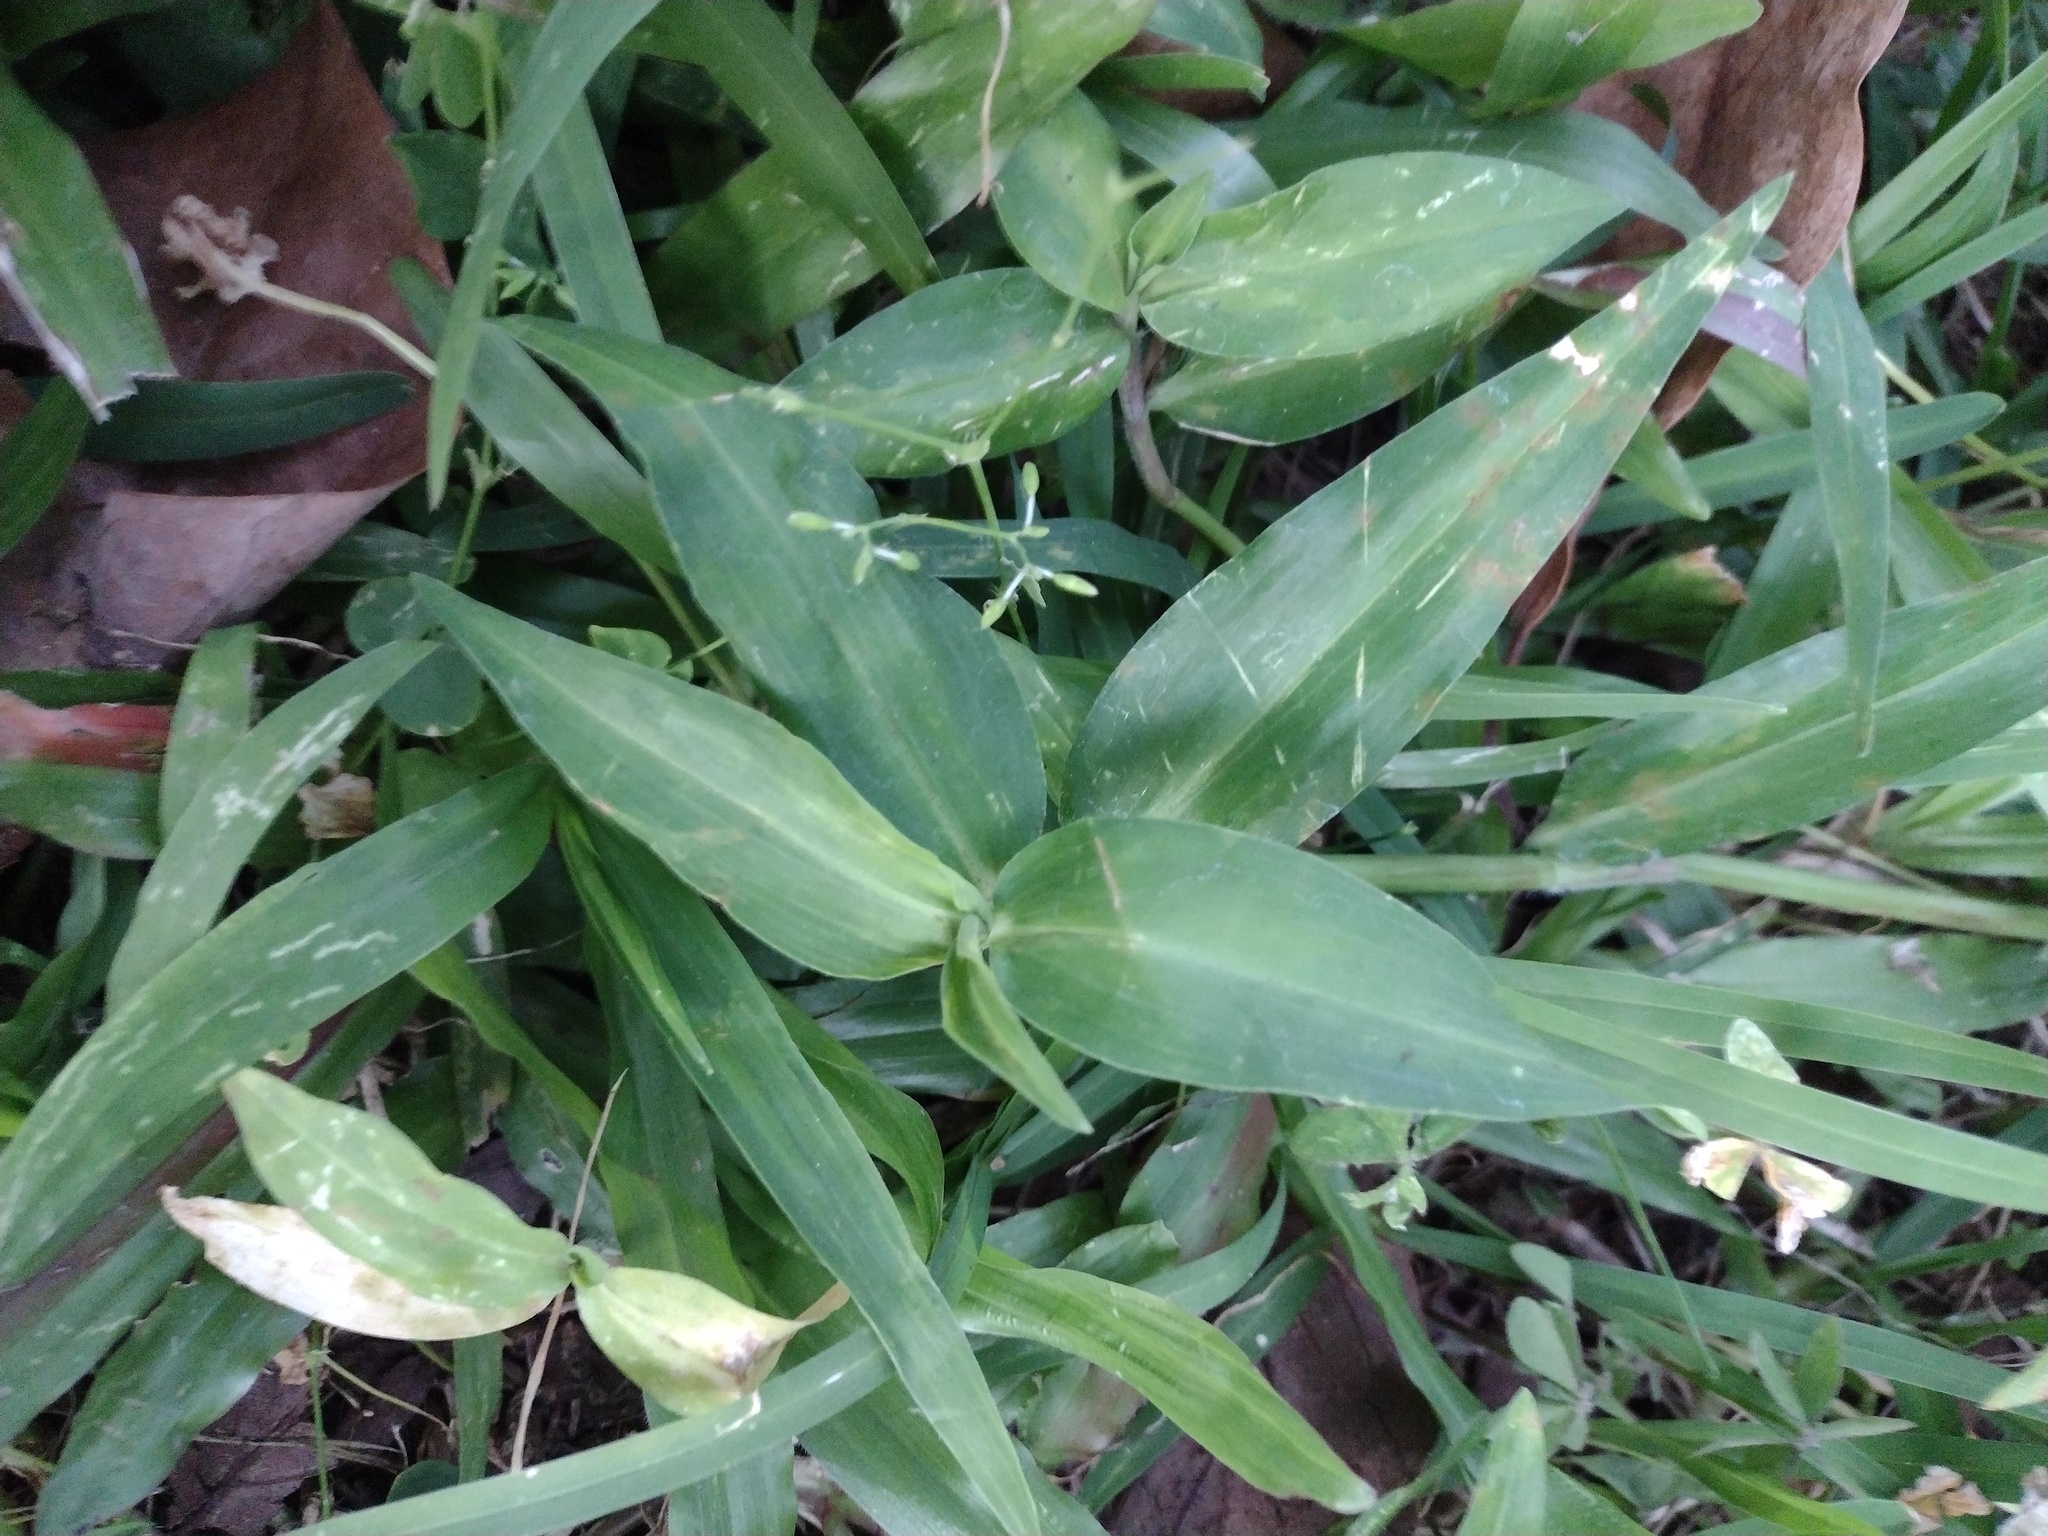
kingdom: Plantae
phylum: Tracheophyta
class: Liliopsida
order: Commelinales
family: Commelinaceae
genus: Commelina
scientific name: Commelina diffusa
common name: Climbing dayflower
